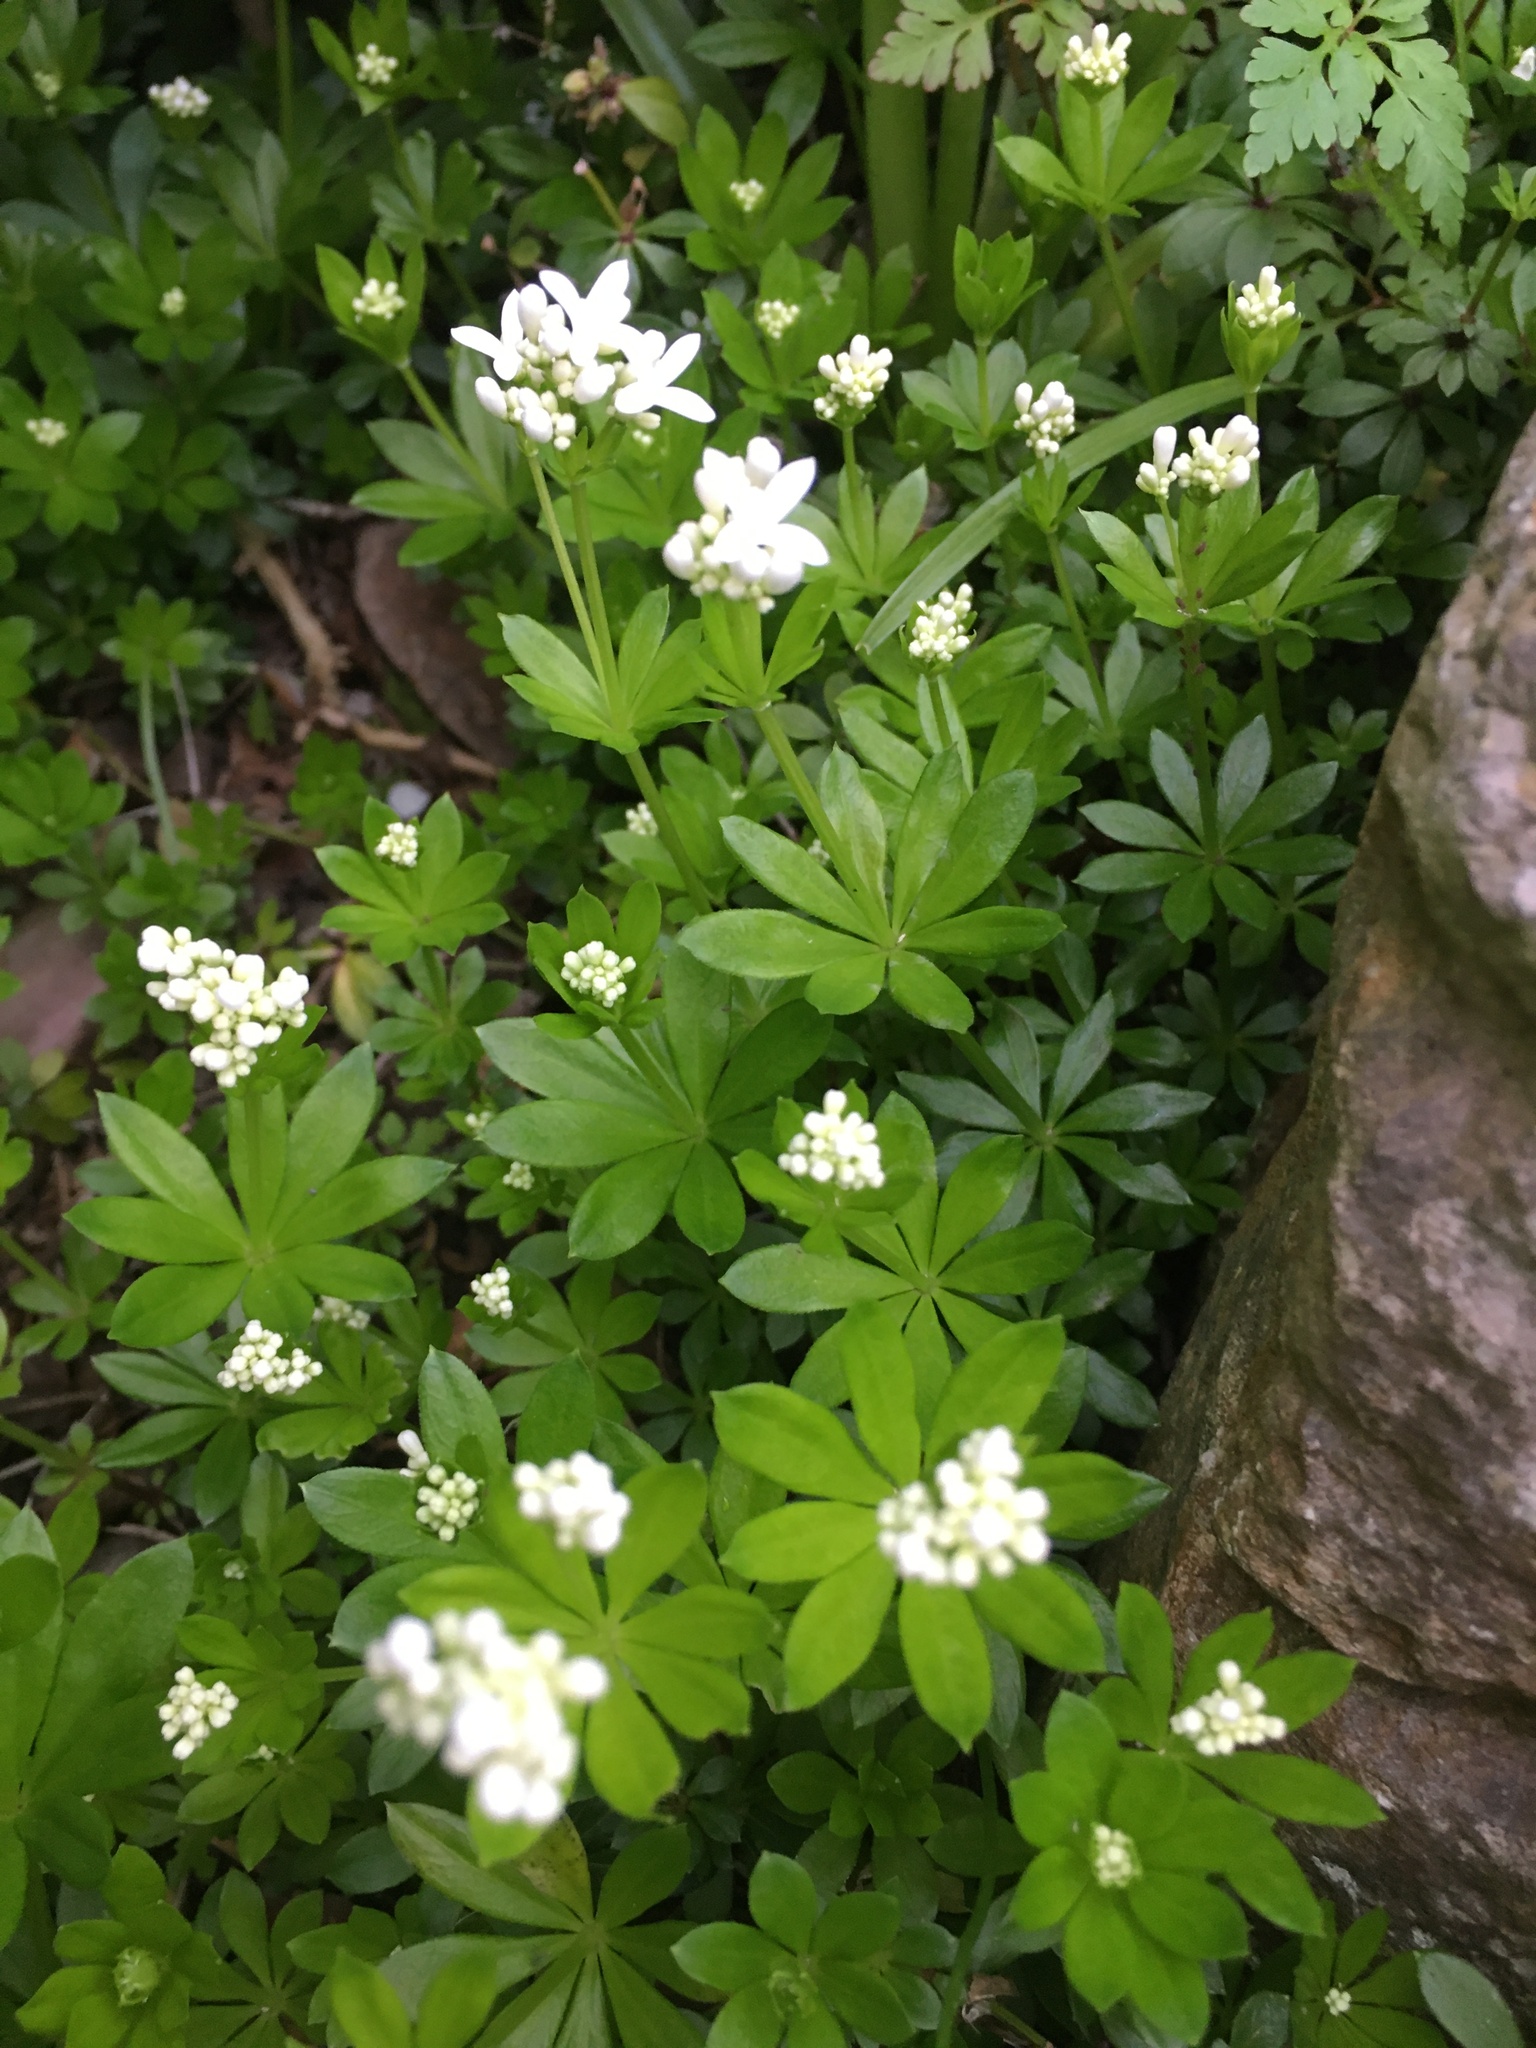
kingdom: Plantae
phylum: Tracheophyta
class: Magnoliopsida
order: Gentianales
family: Rubiaceae
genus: Galium
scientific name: Galium odoratum
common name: Sweet woodruff
